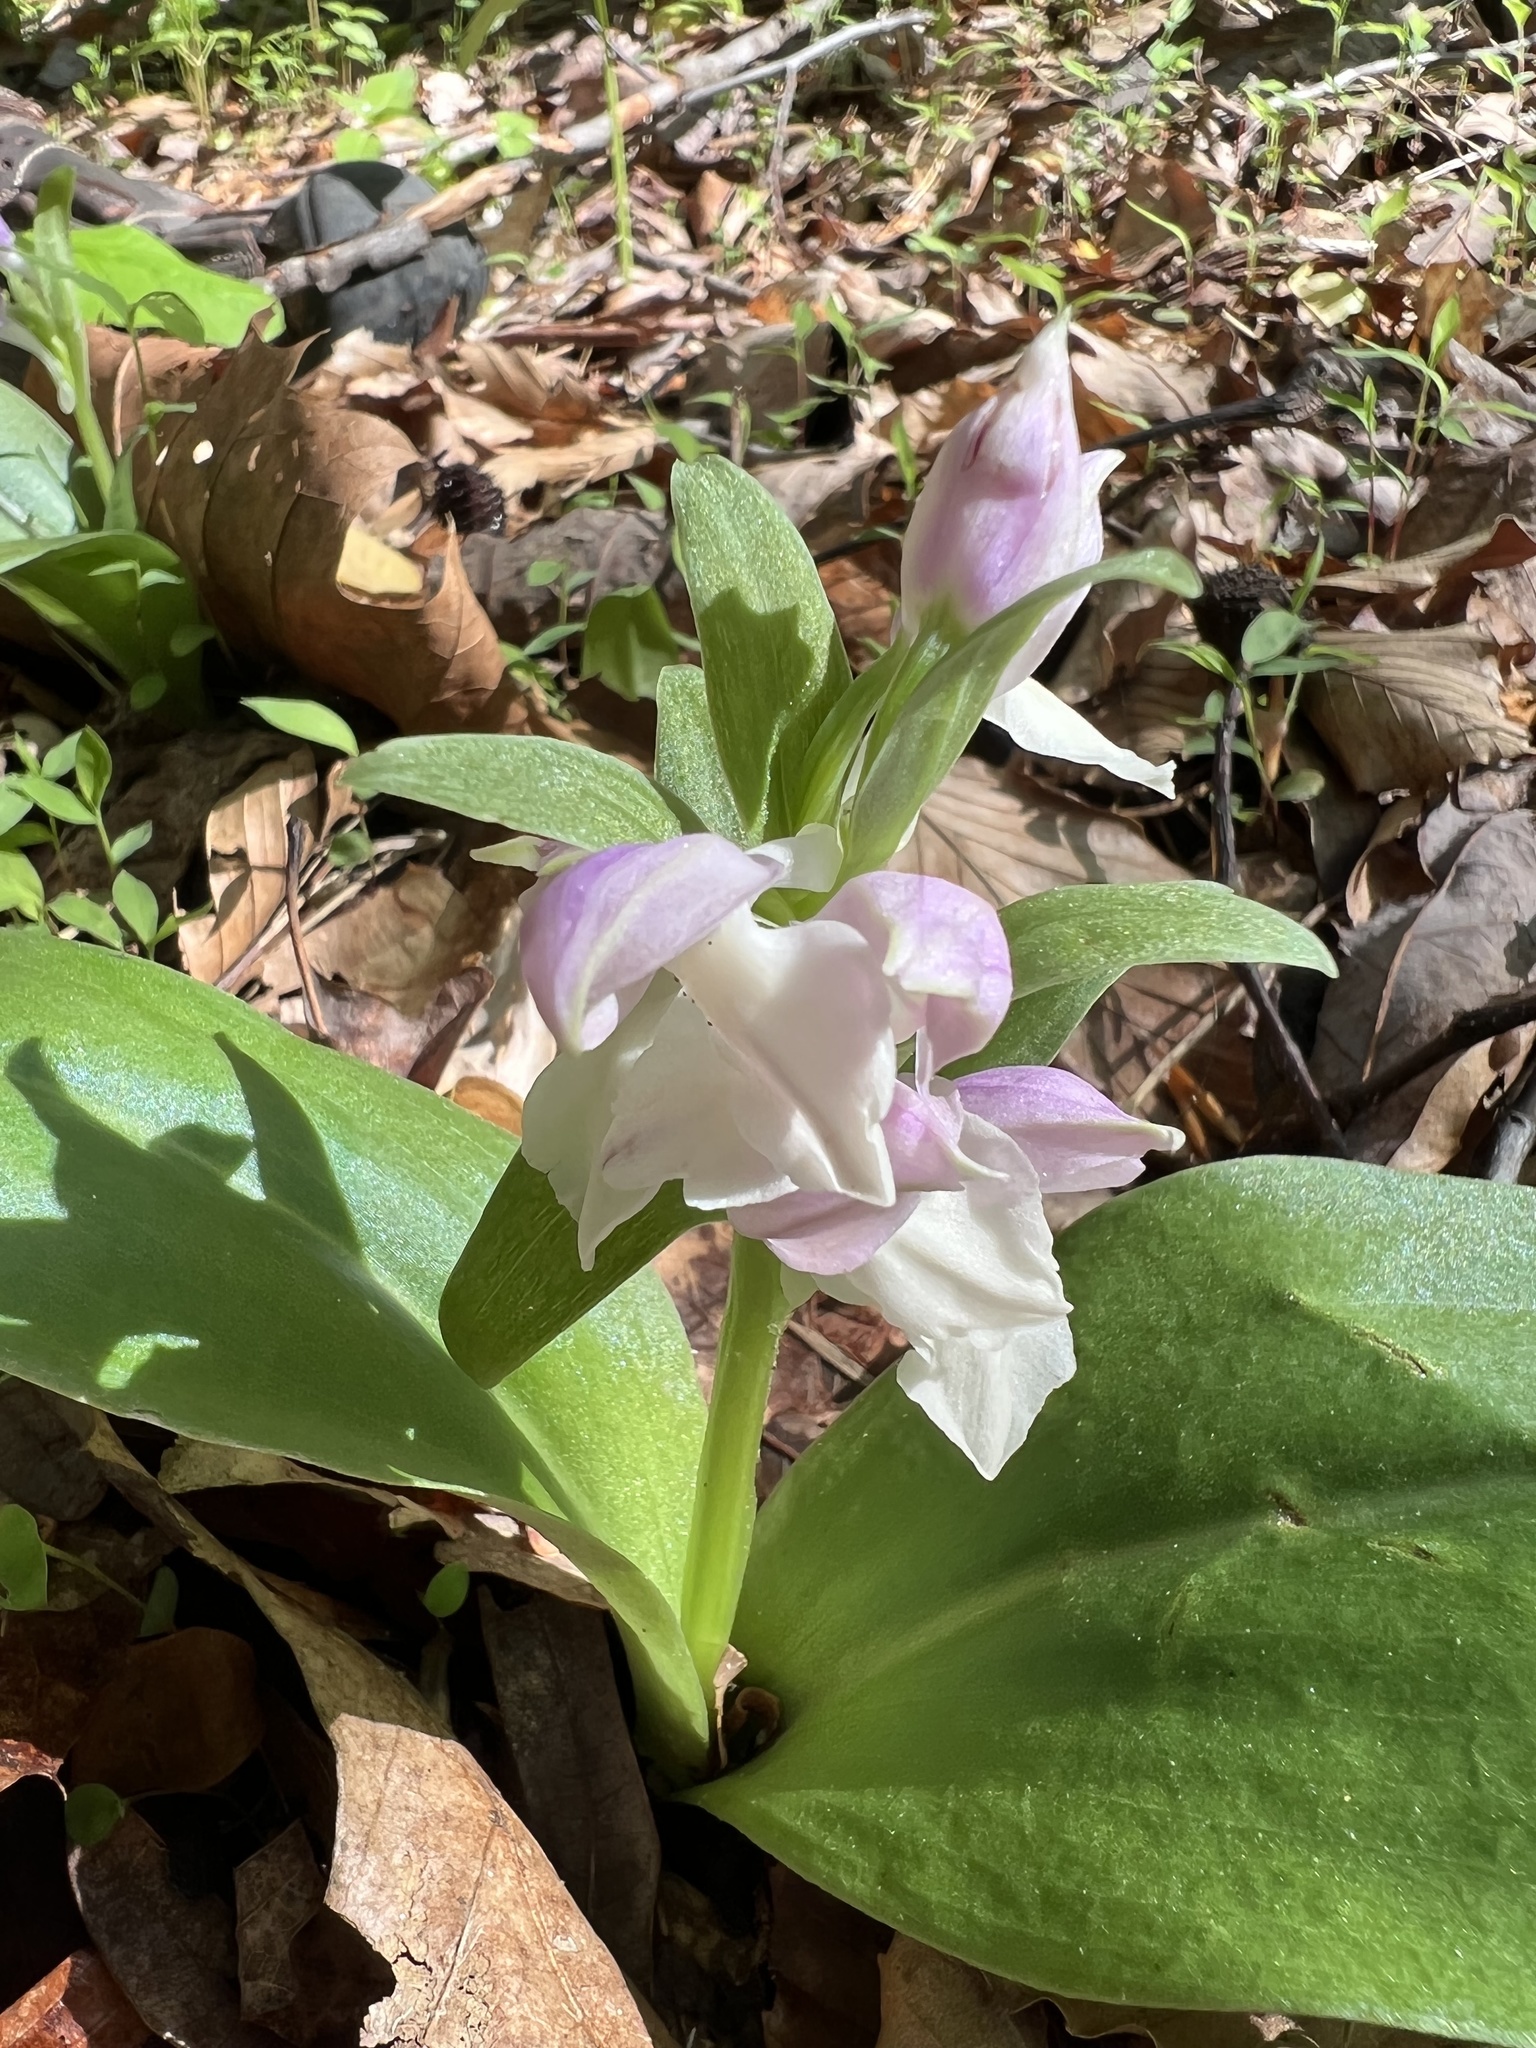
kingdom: Plantae
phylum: Tracheophyta
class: Liliopsida
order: Asparagales
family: Orchidaceae
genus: Galearis
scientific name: Galearis spectabilis
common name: Purple-hooded orchis
